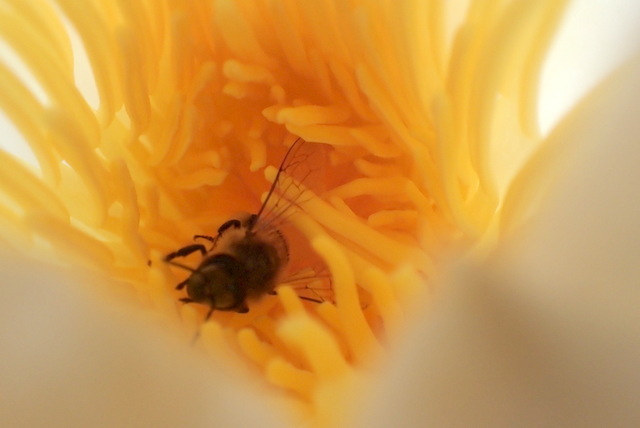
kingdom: Animalia
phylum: Arthropoda
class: Insecta
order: Hymenoptera
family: Apidae
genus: Apis
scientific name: Apis mellifera
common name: Honey bee
